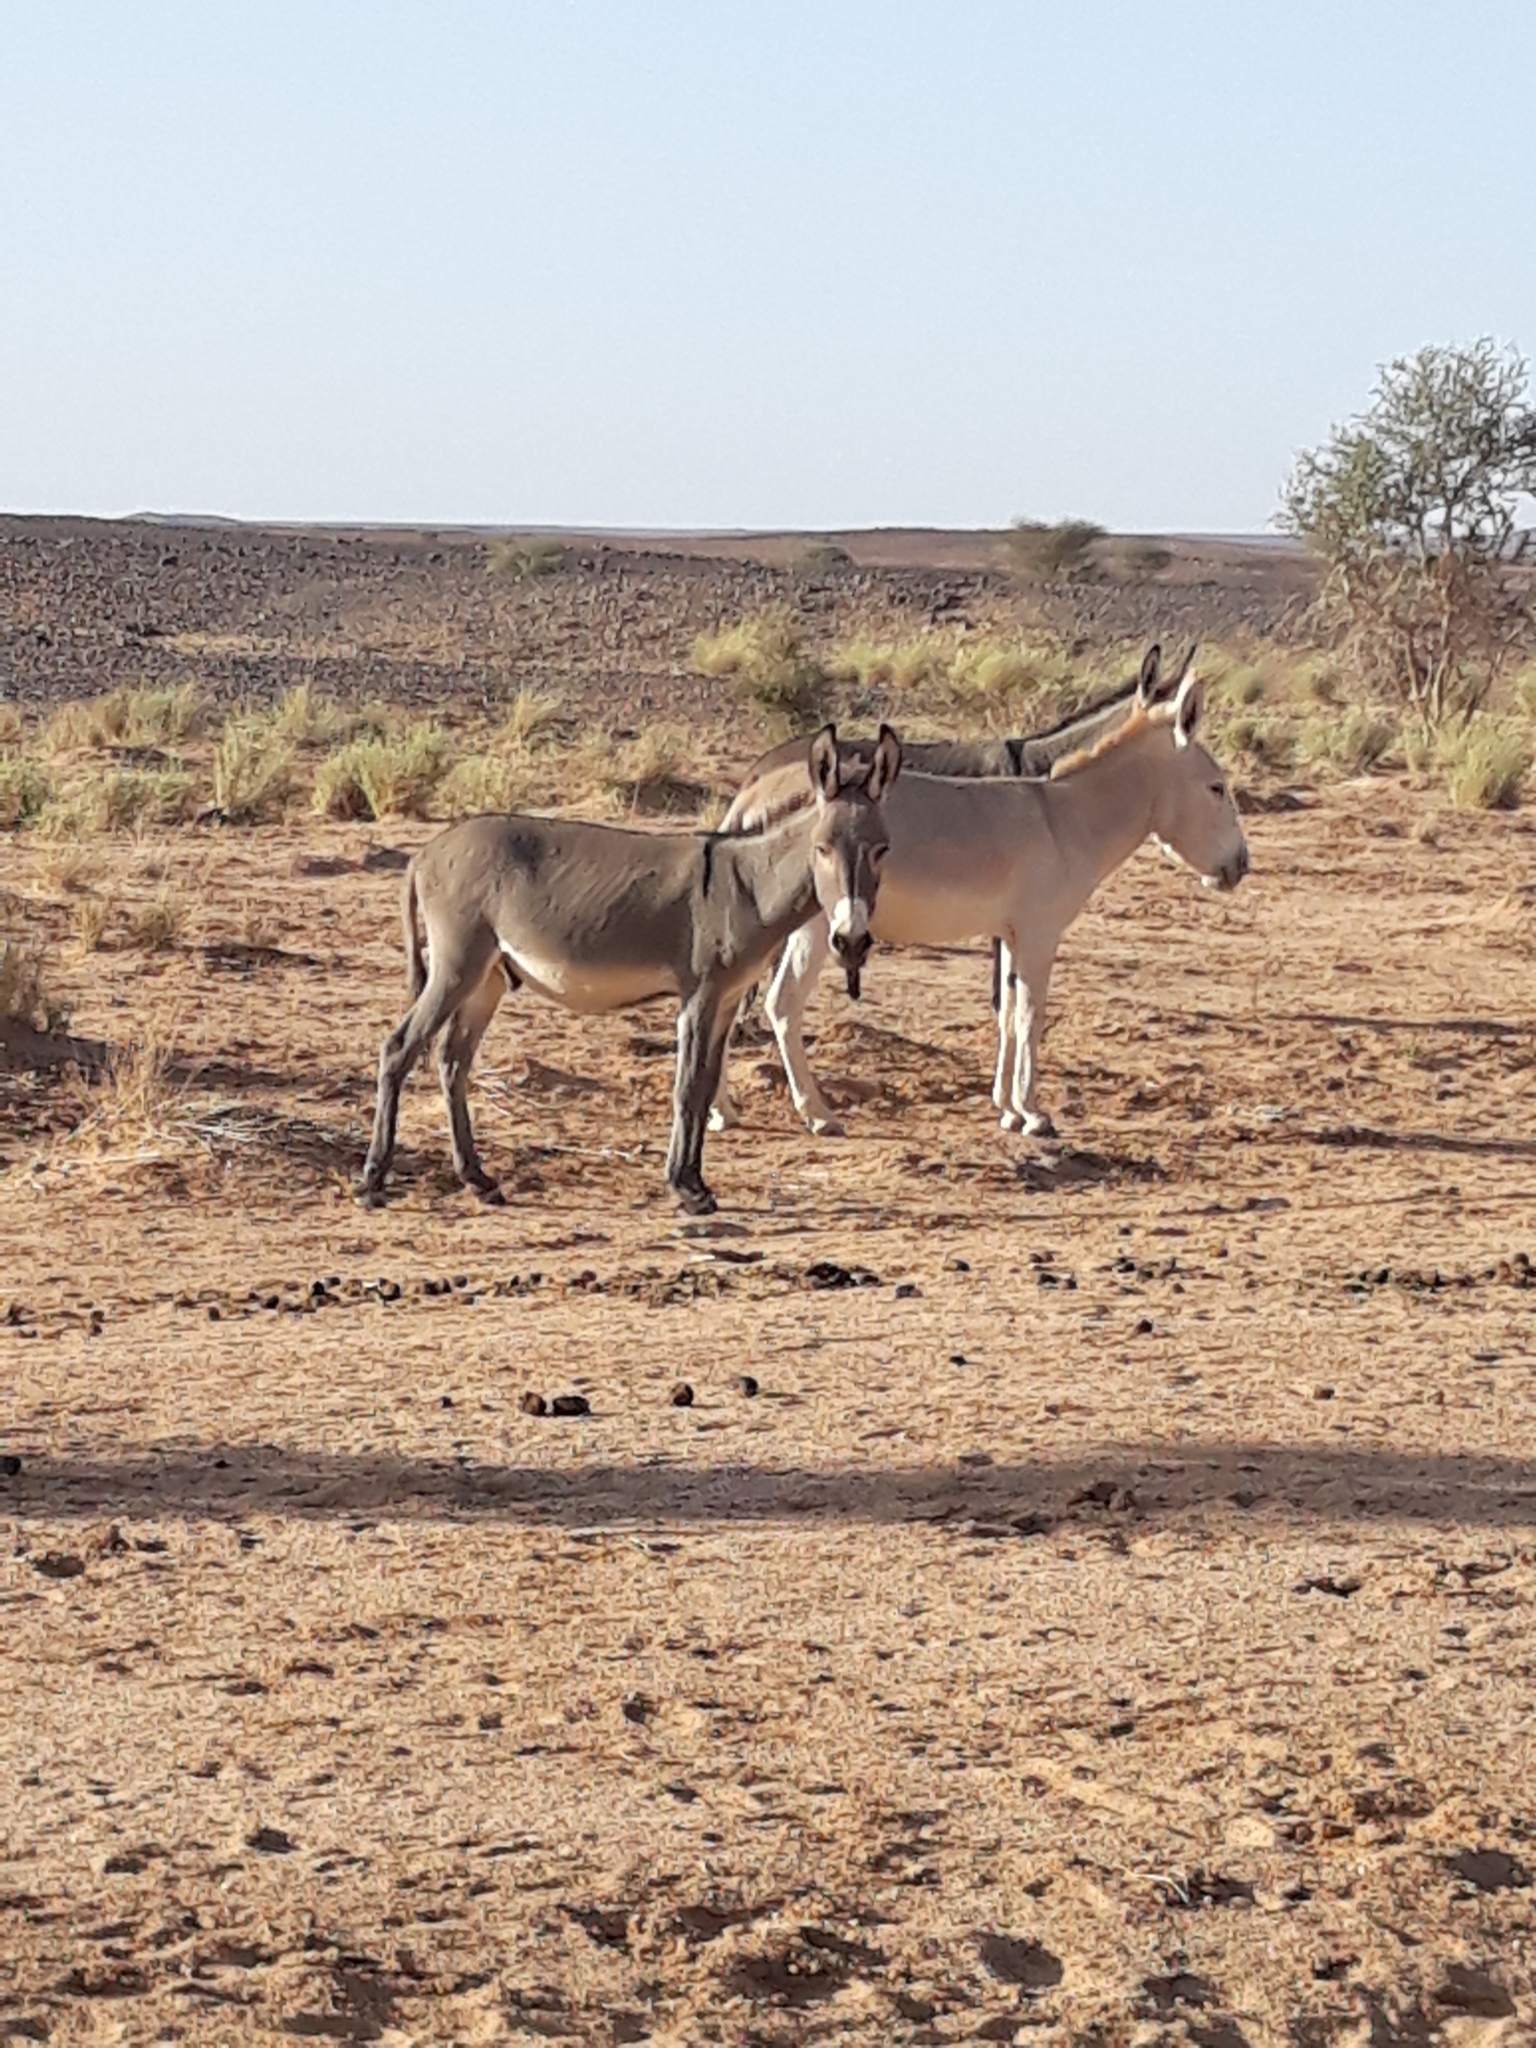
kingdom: Animalia
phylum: Chordata
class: Mammalia
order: Perissodactyla
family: Equidae
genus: Equus
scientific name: Equus asinus
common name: Ass
